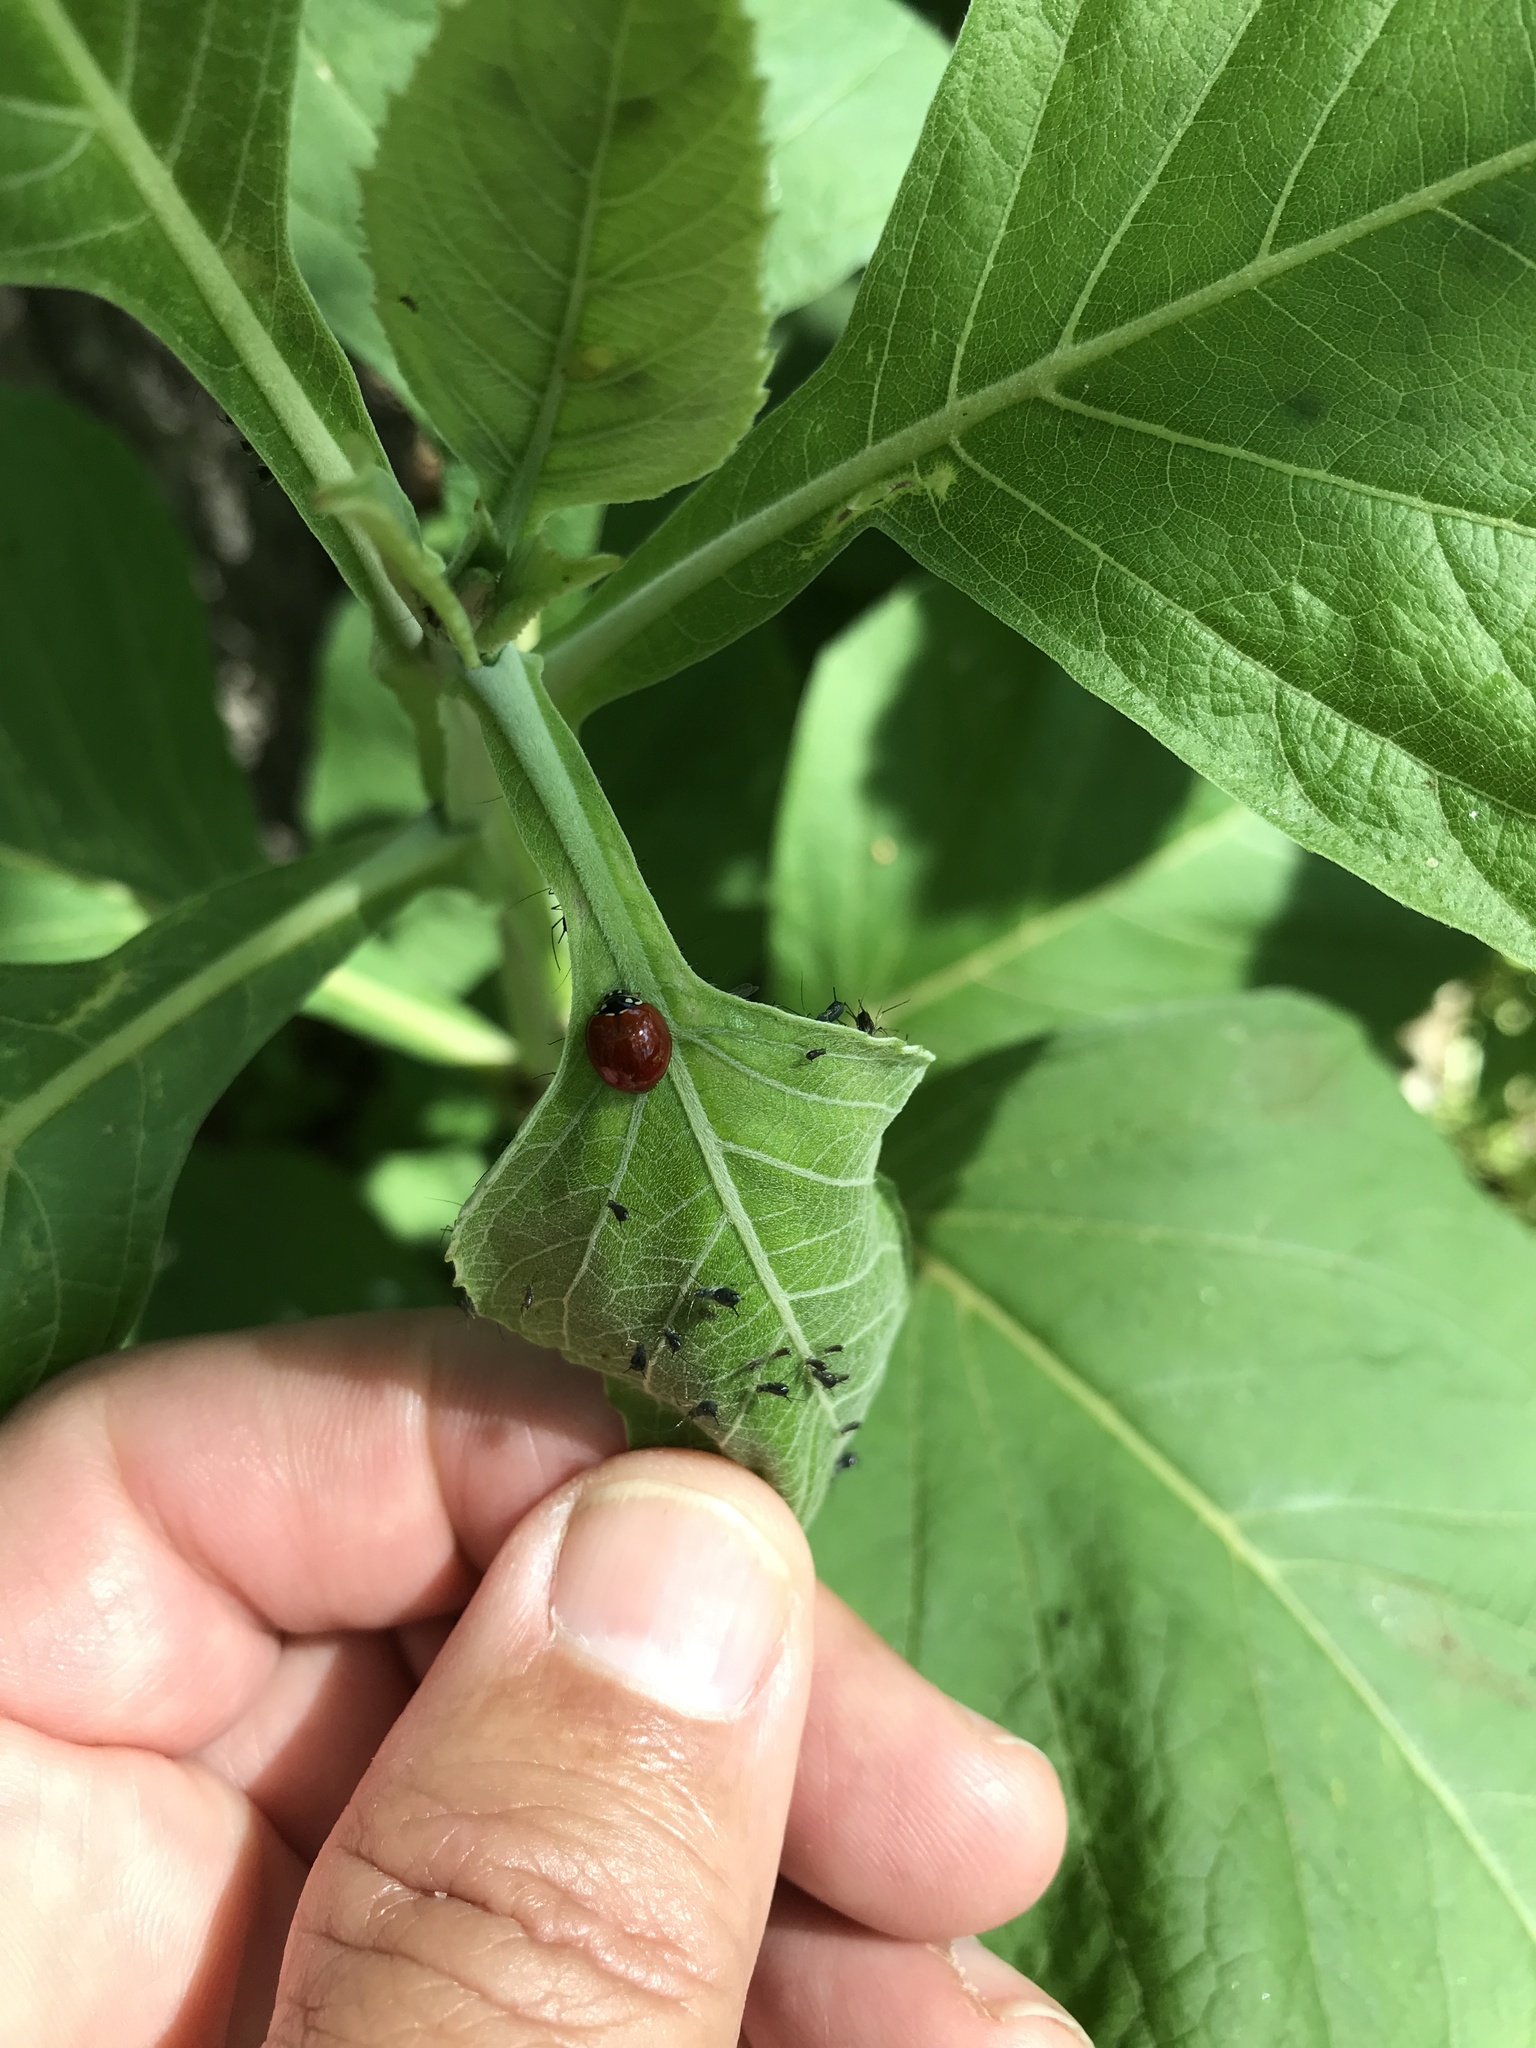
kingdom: Animalia
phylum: Arthropoda
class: Insecta
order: Coleoptera
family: Coccinellidae
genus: Cycloneda
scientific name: Cycloneda sanguinea
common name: Ladybird beetle
